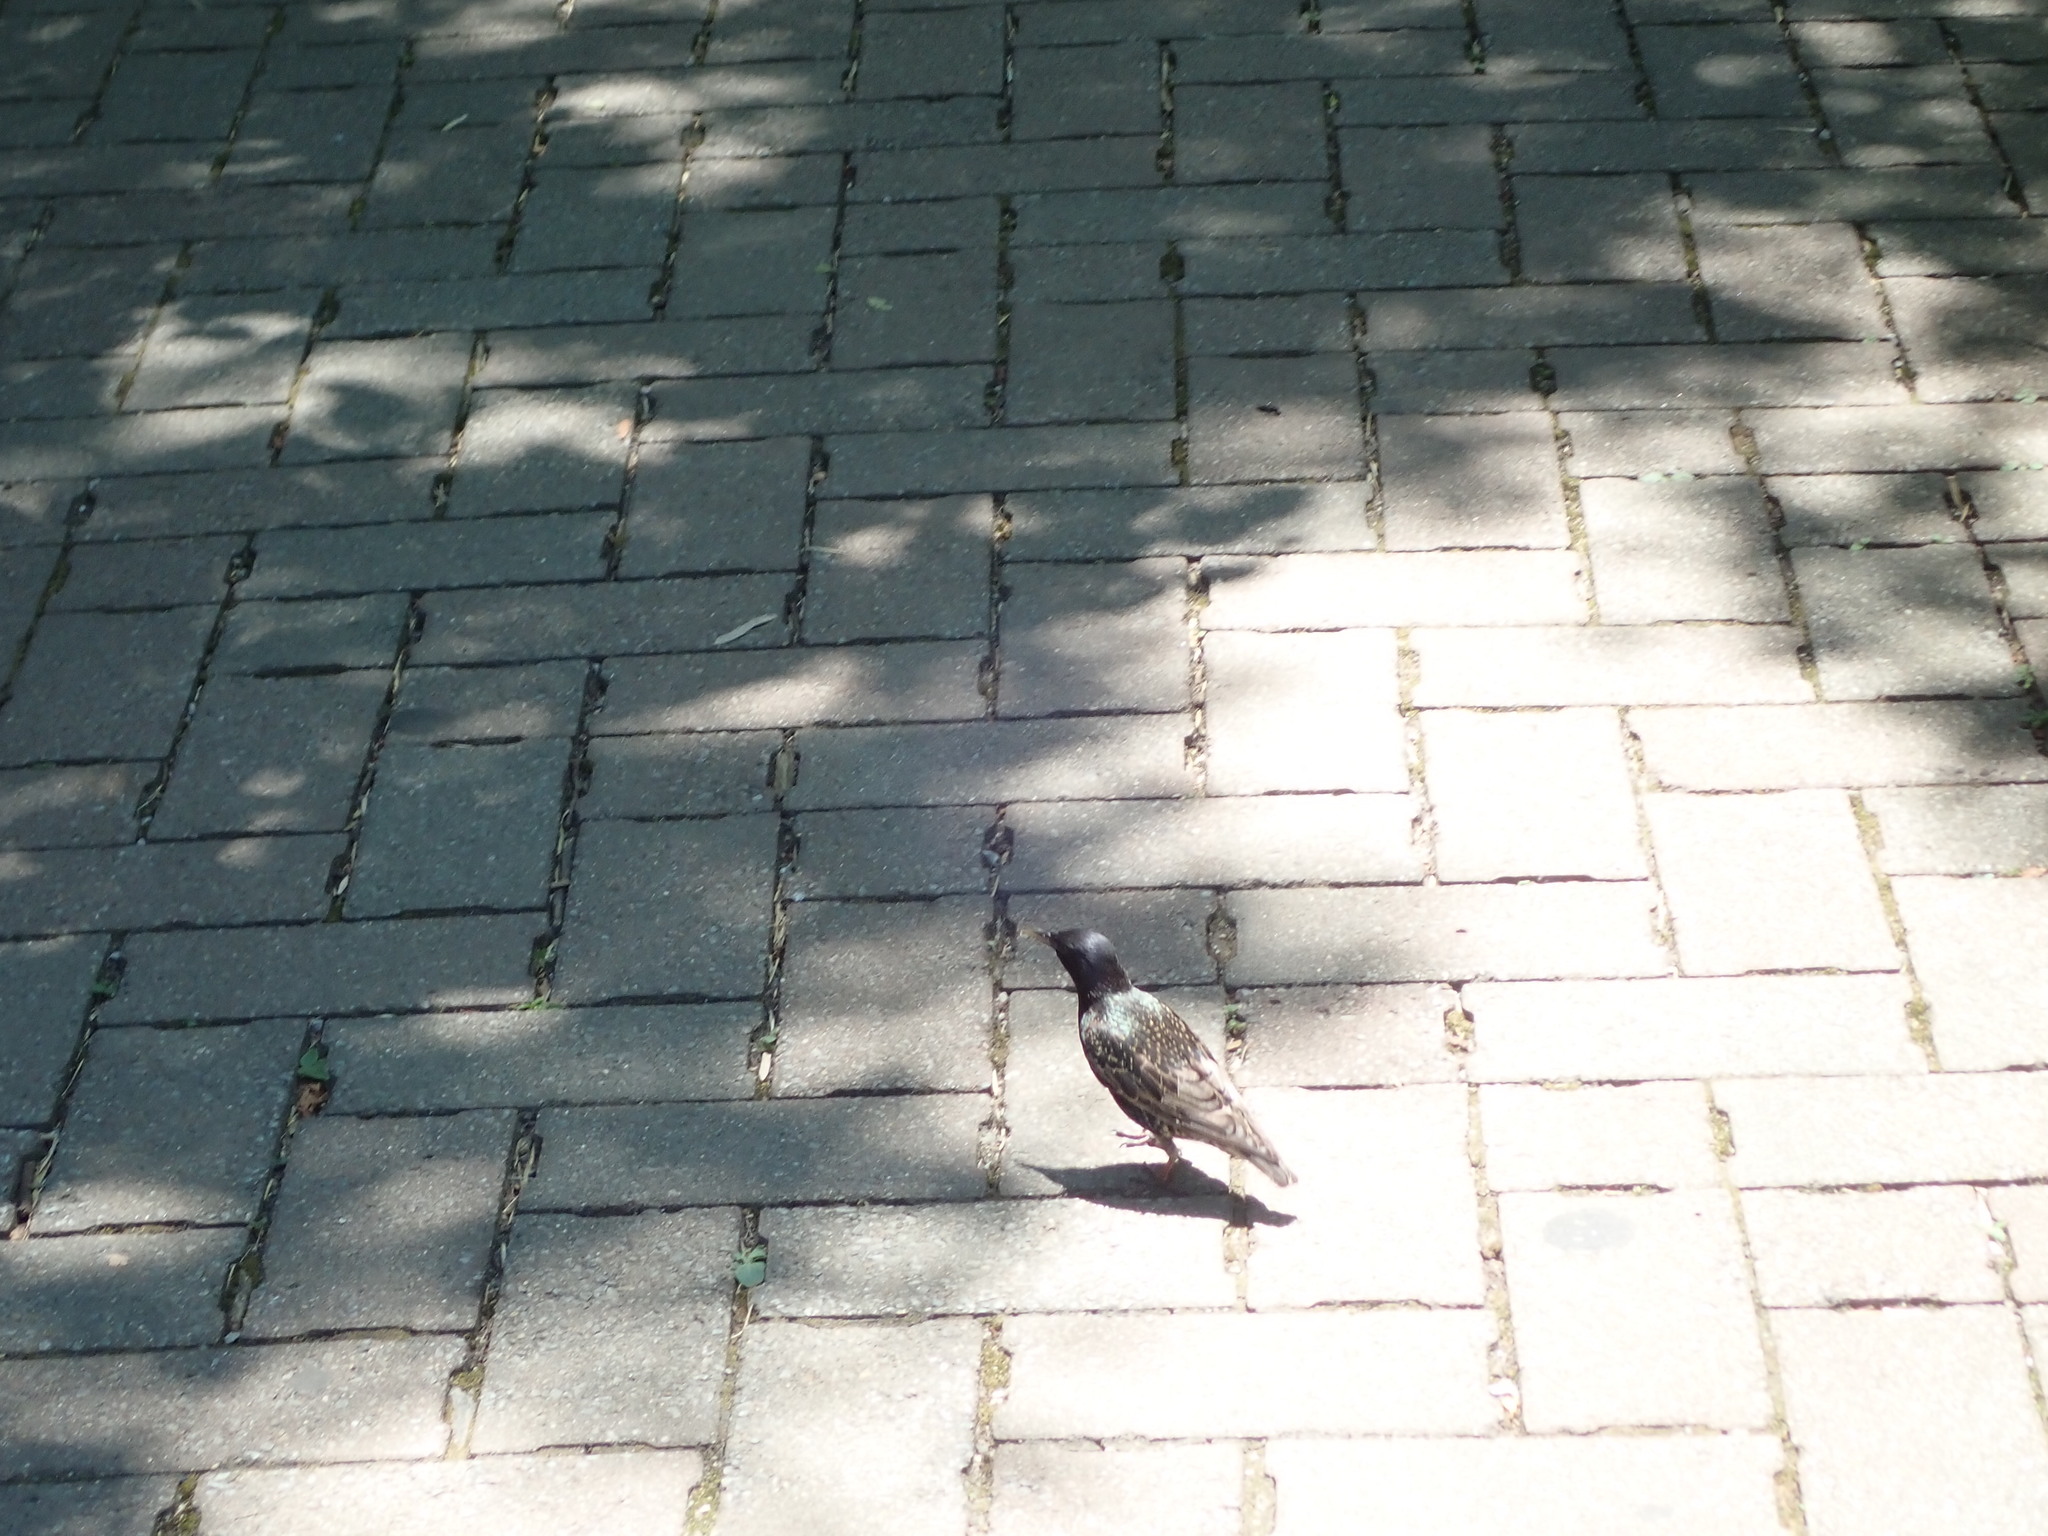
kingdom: Animalia
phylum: Chordata
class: Aves
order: Passeriformes
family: Sturnidae
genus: Sturnus
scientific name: Sturnus vulgaris
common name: Common starling
